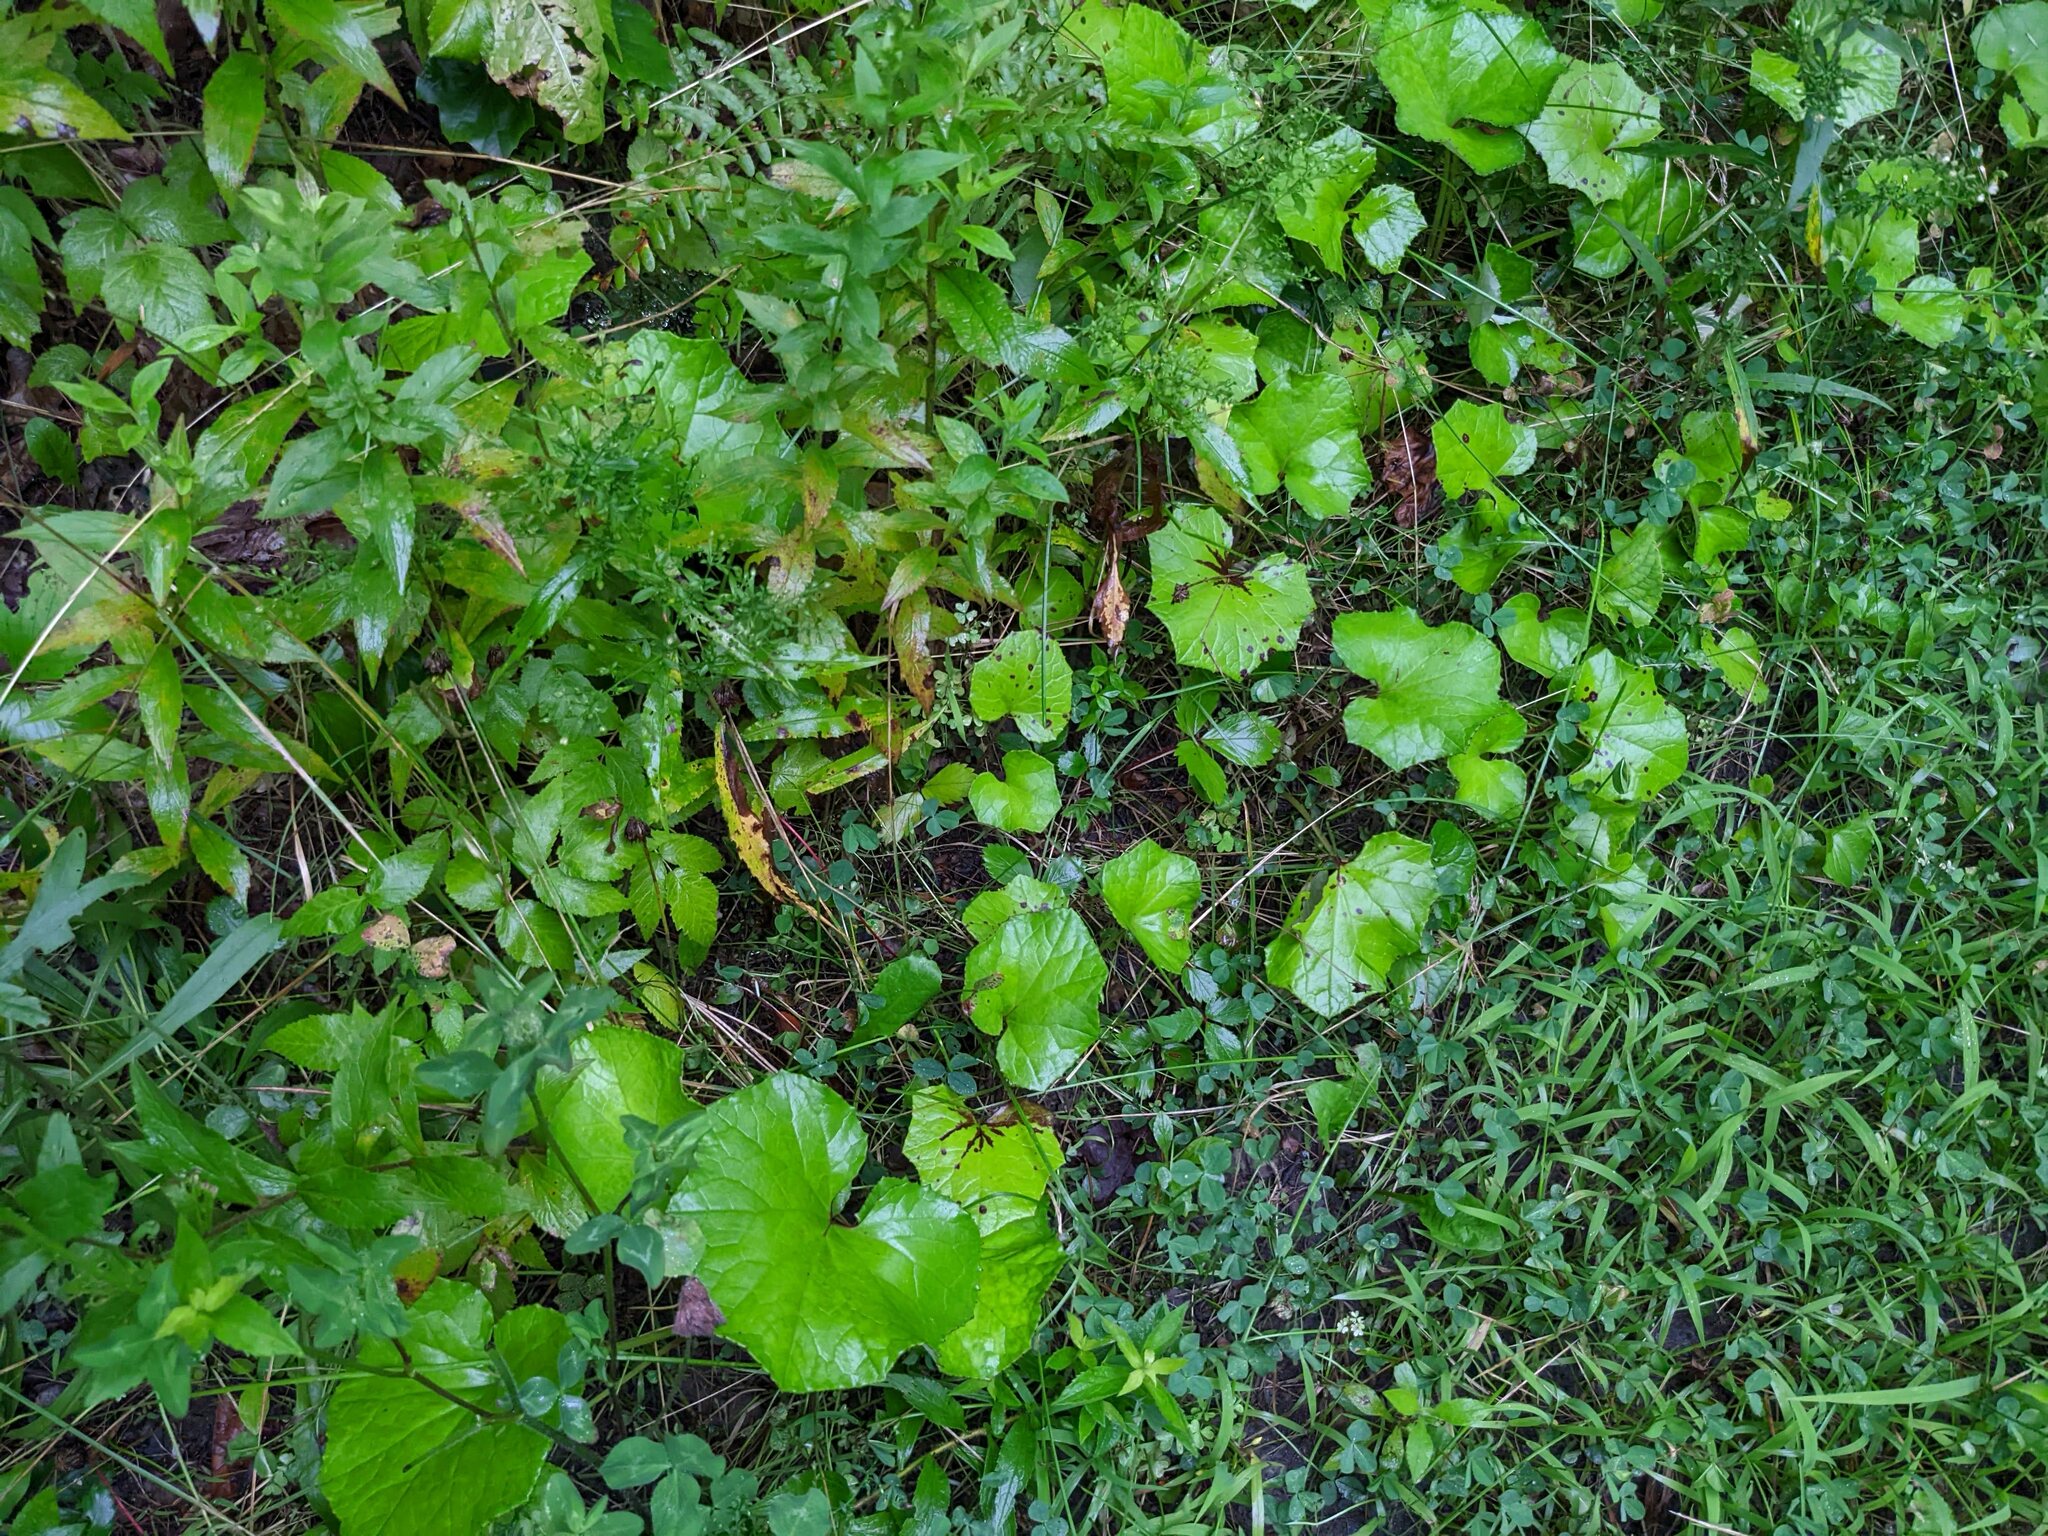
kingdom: Plantae
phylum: Tracheophyta
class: Magnoliopsida
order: Asterales
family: Asteraceae
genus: Tussilago
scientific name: Tussilago farfara
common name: Coltsfoot
